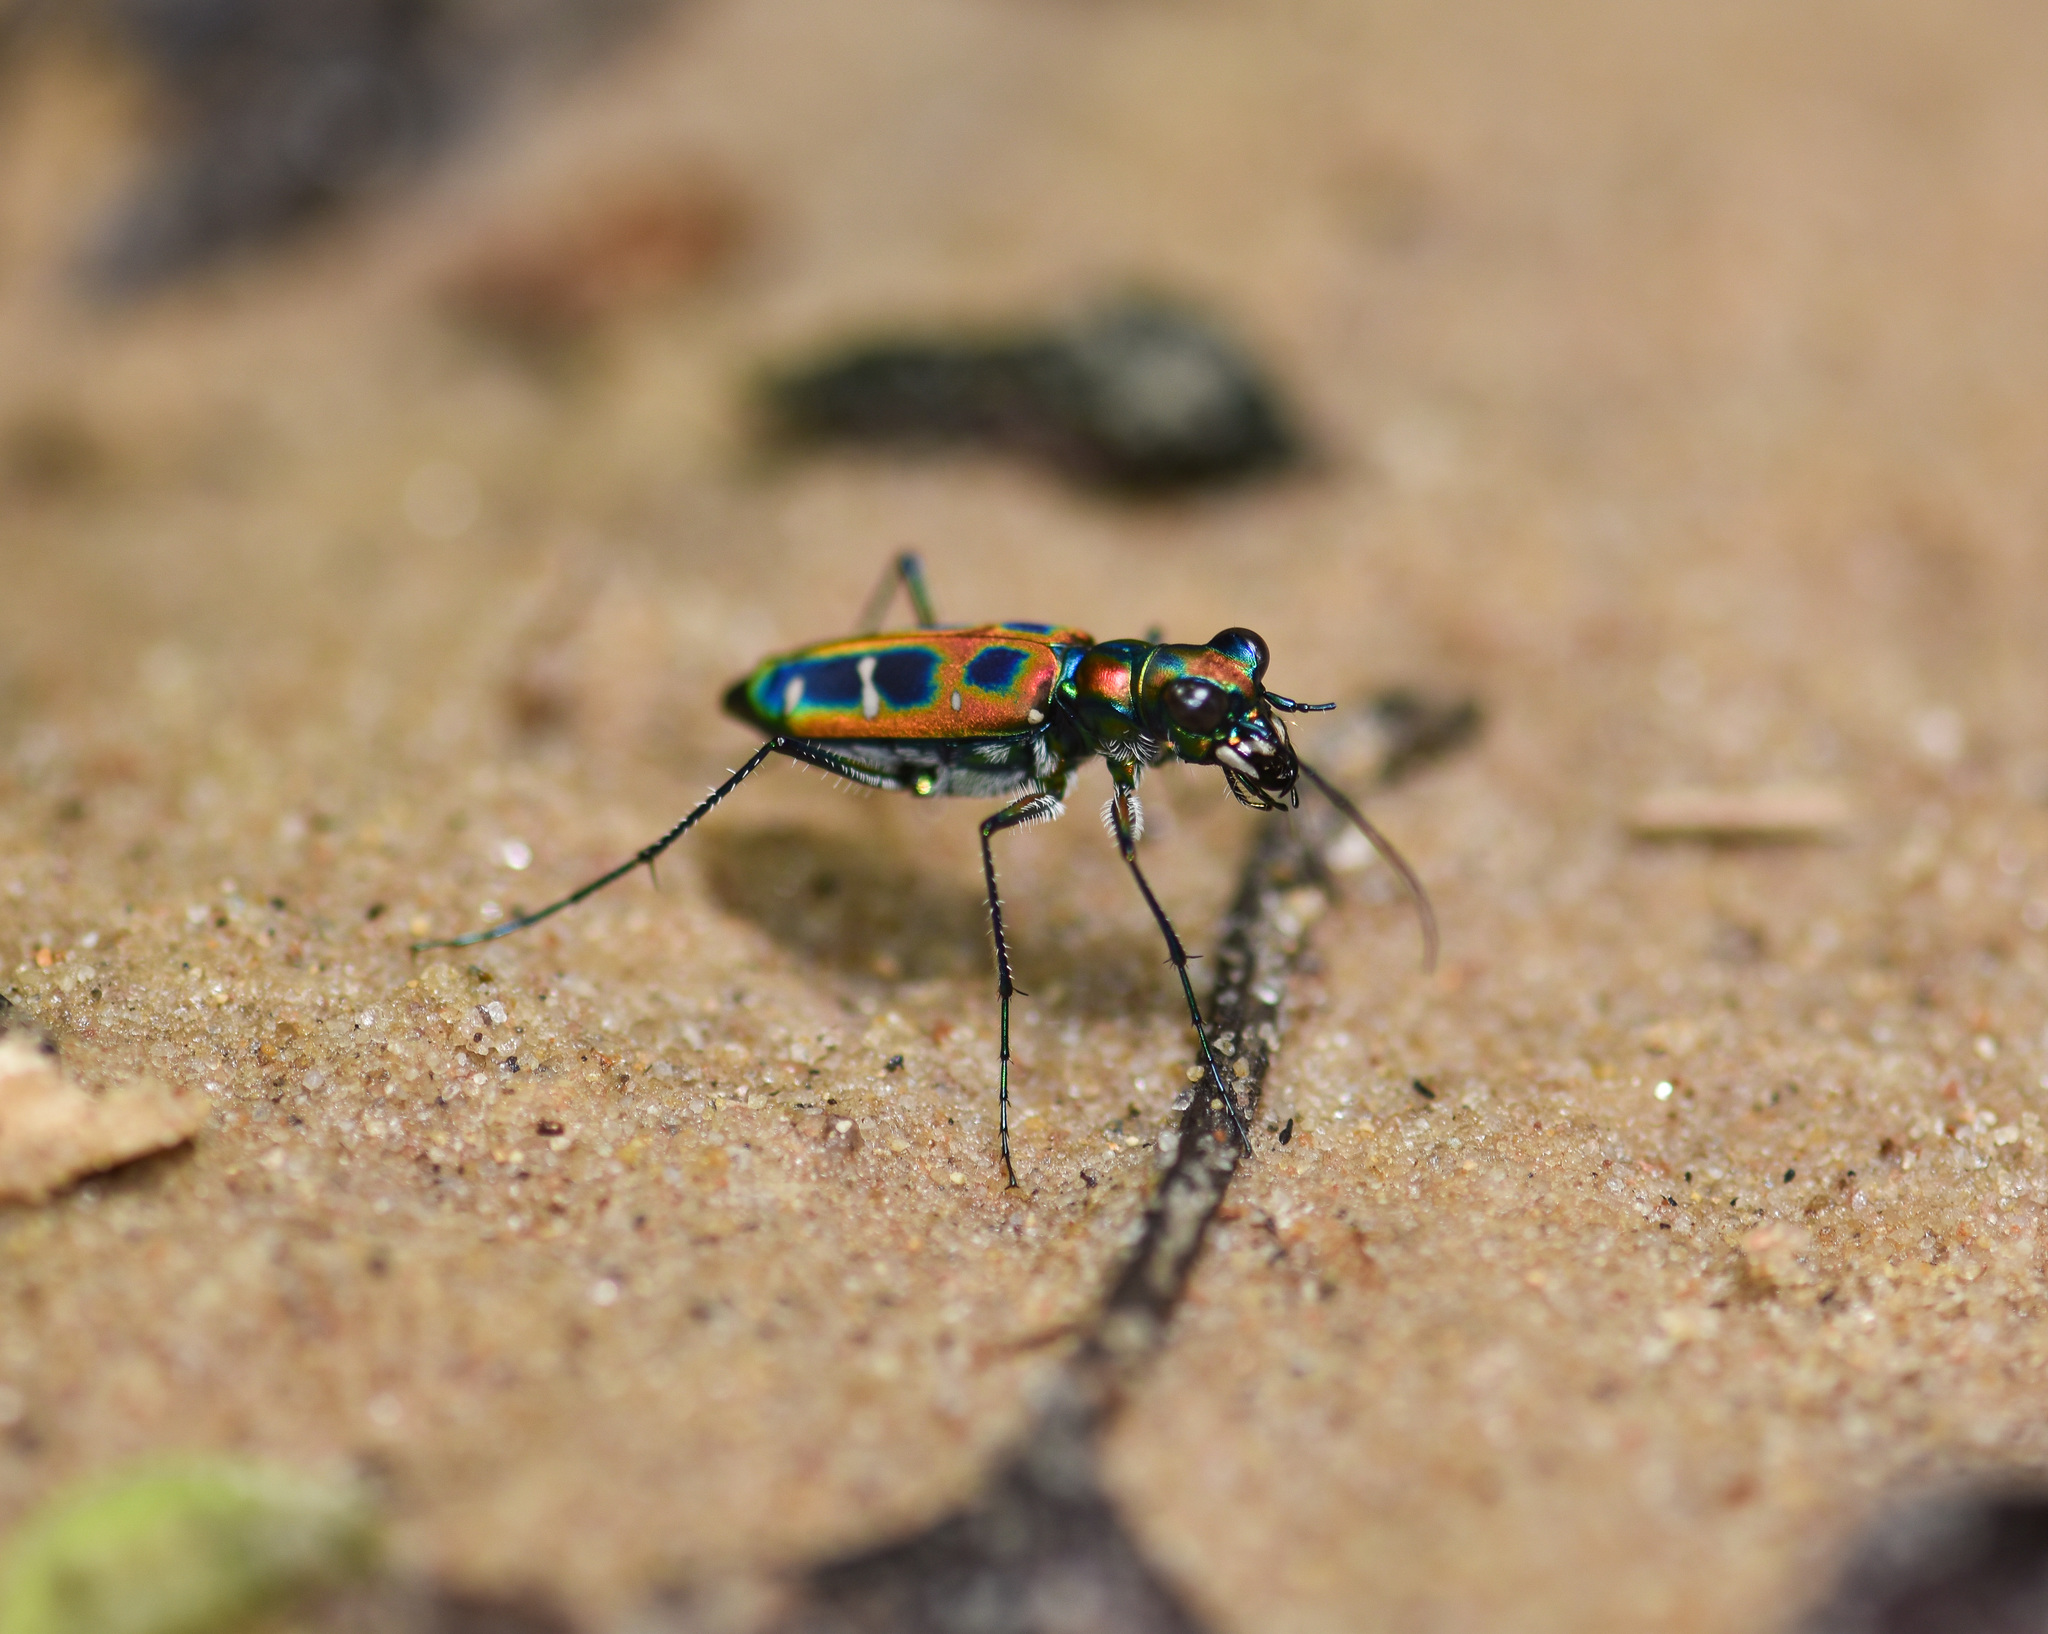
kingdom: Animalia
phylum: Arthropoda
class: Insecta
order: Coleoptera
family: Carabidae
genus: Cicindela
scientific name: Cicindela barmanica
